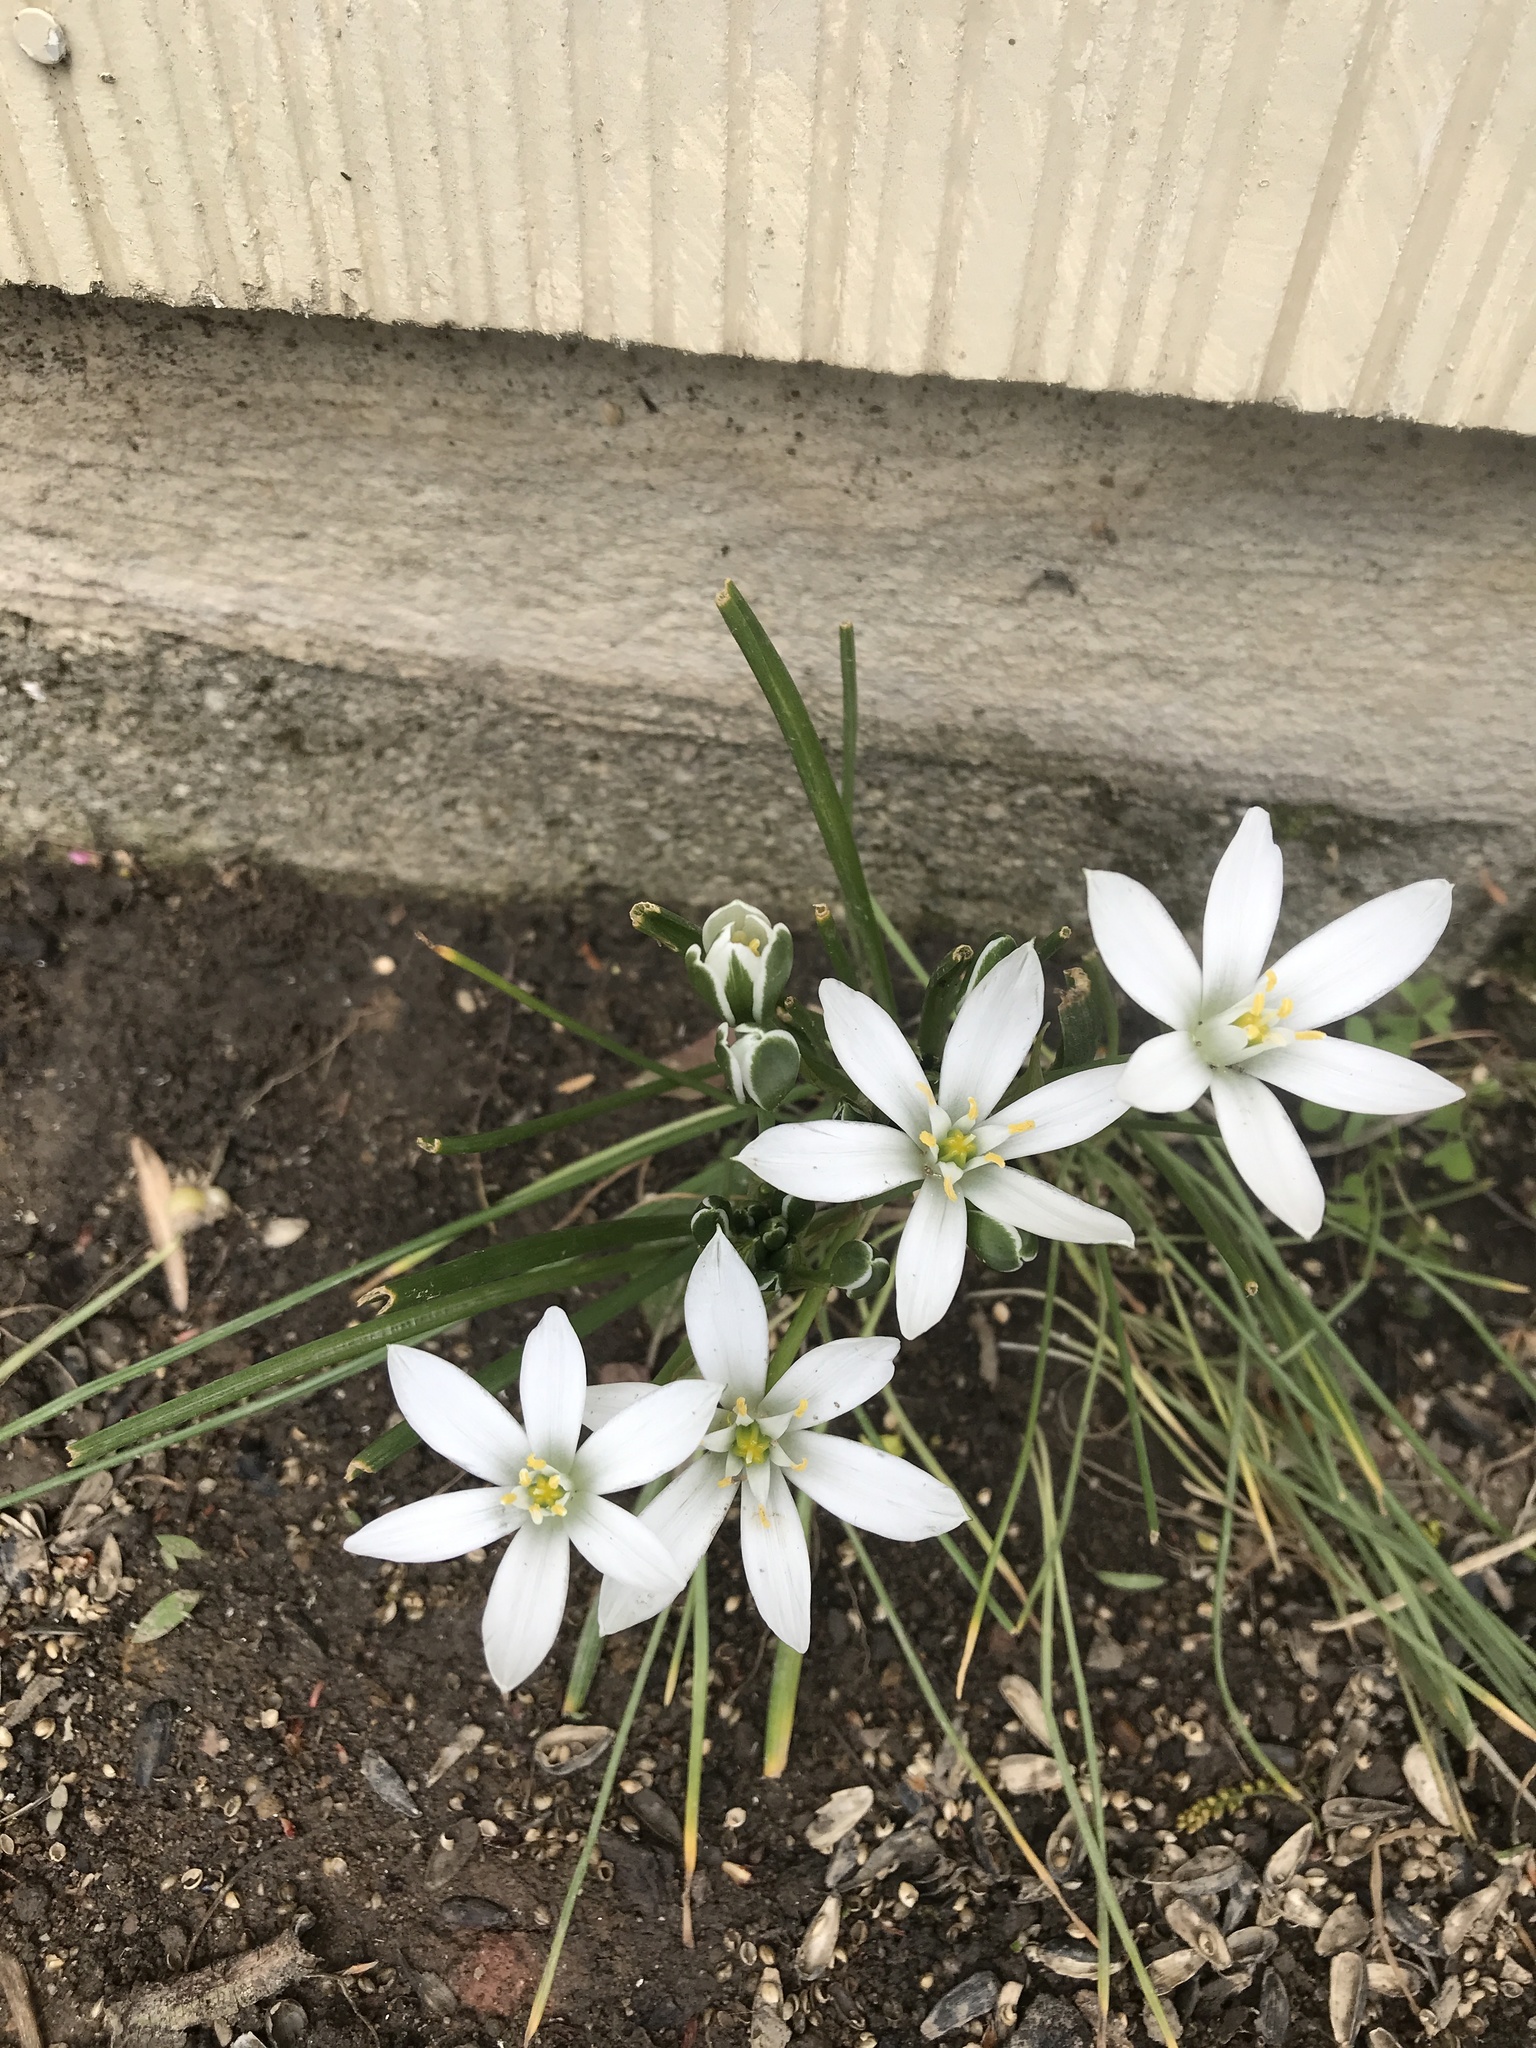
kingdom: Plantae
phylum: Tracheophyta
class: Liliopsida
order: Asparagales
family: Asparagaceae
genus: Ornithogalum
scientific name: Ornithogalum umbellatum
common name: Garden star-of-bethlehem
